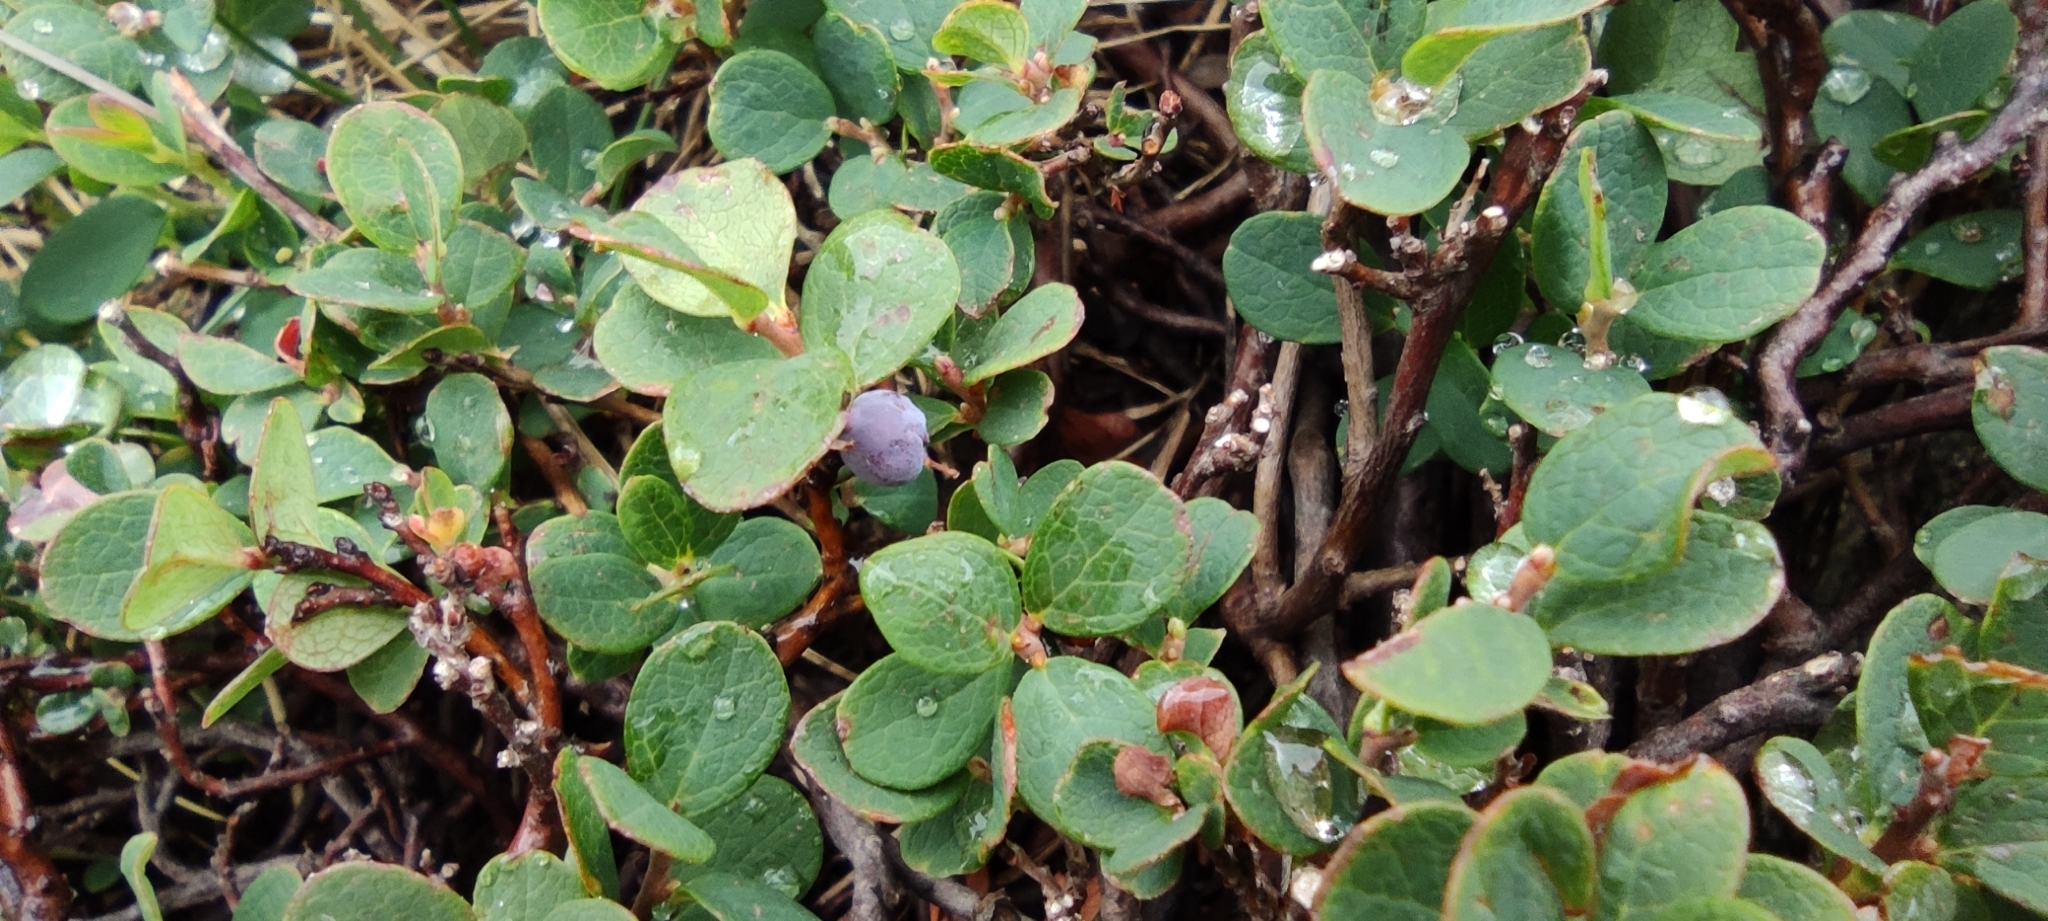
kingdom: Plantae
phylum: Tracheophyta
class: Magnoliopsida
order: Ericales
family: Ericaceae
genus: Vaccinium
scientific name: Vaccinium uliginosum
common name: Bog bilberry
